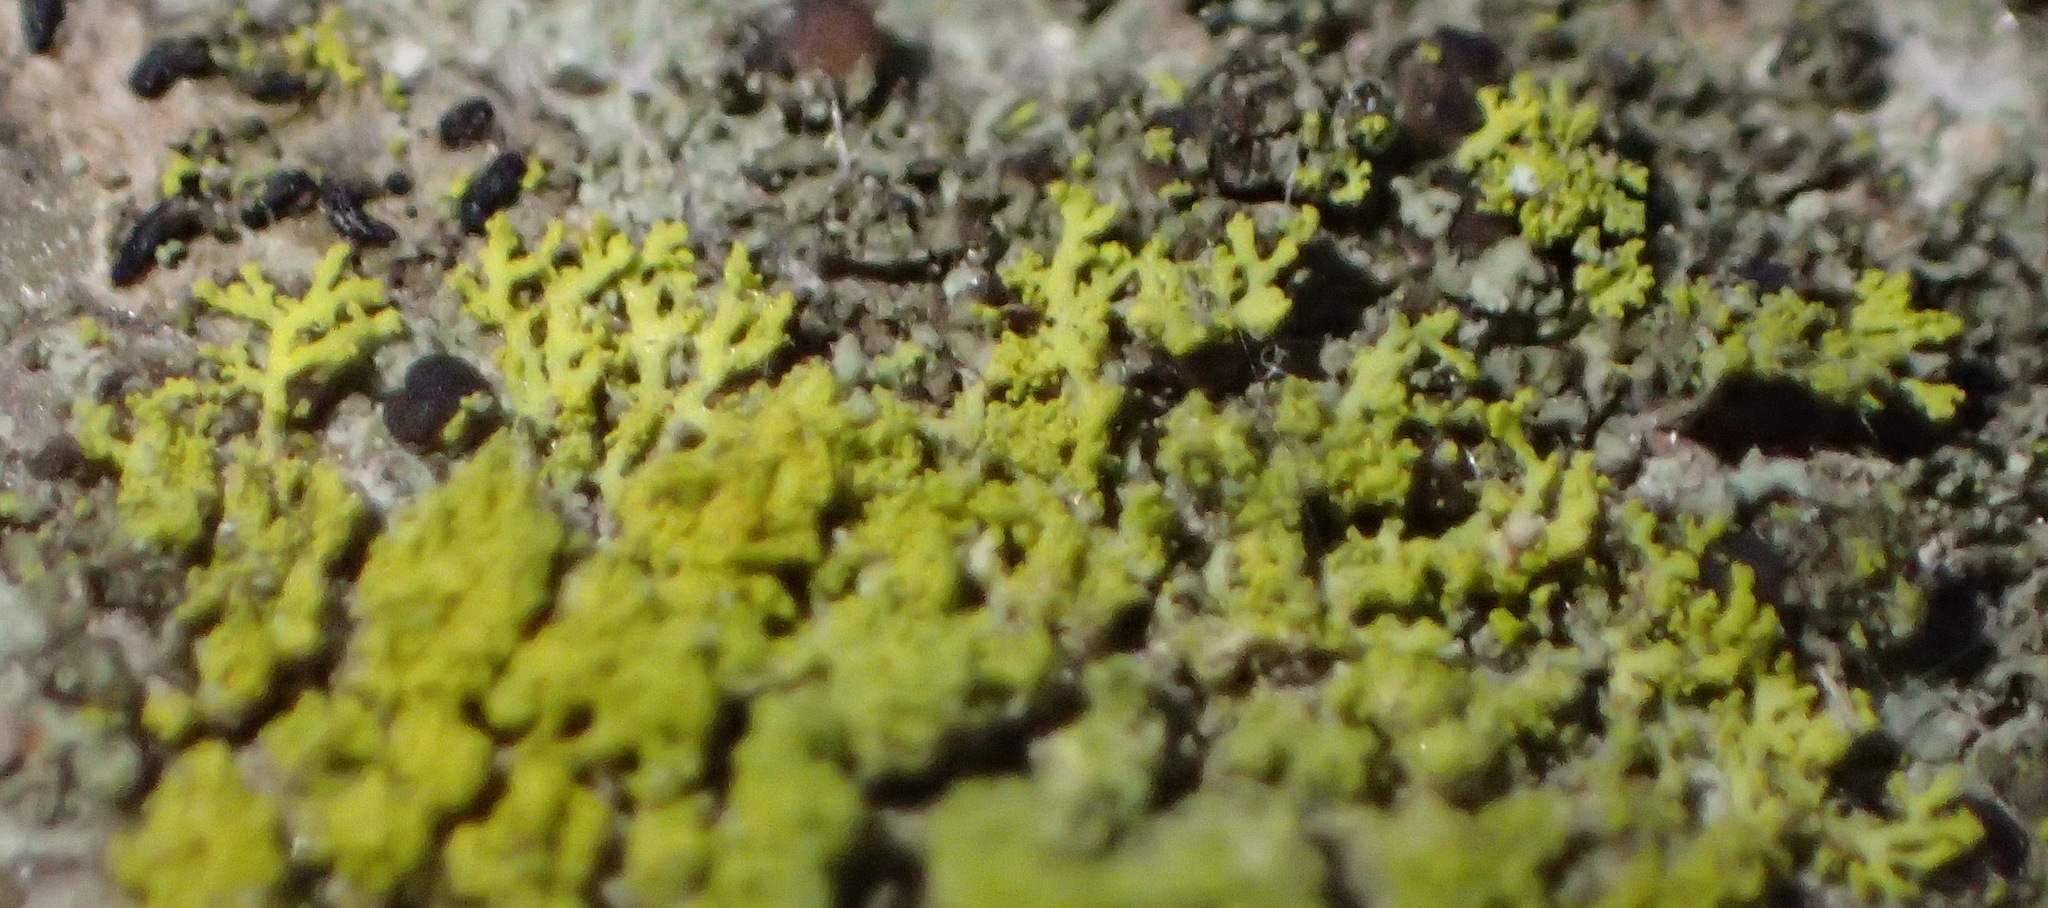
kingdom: Fungi
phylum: Ascomycota
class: Candelariomycetes
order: Candelariales
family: Candelariaceae
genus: Candelaria
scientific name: Candelaria concolor
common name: Candleflame lichen
